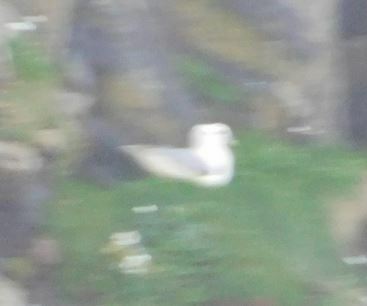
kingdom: Animalia
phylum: Chordata
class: Aves
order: Procellariiformes
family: Procellariidae
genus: Fulmarus
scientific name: Fulmarus glacialis
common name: Northern fulmar
